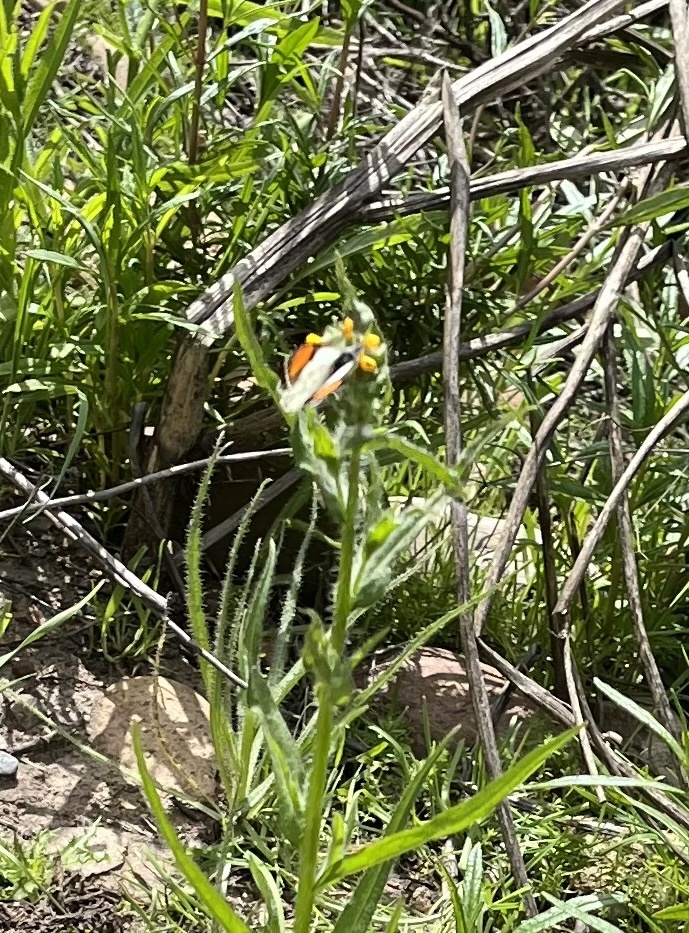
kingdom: Animalia
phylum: Arthropoda
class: Insecta
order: Lepidoptera
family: Pieridae
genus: Anthocharis
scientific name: Anthocharis sara
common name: Sara's orangetip
